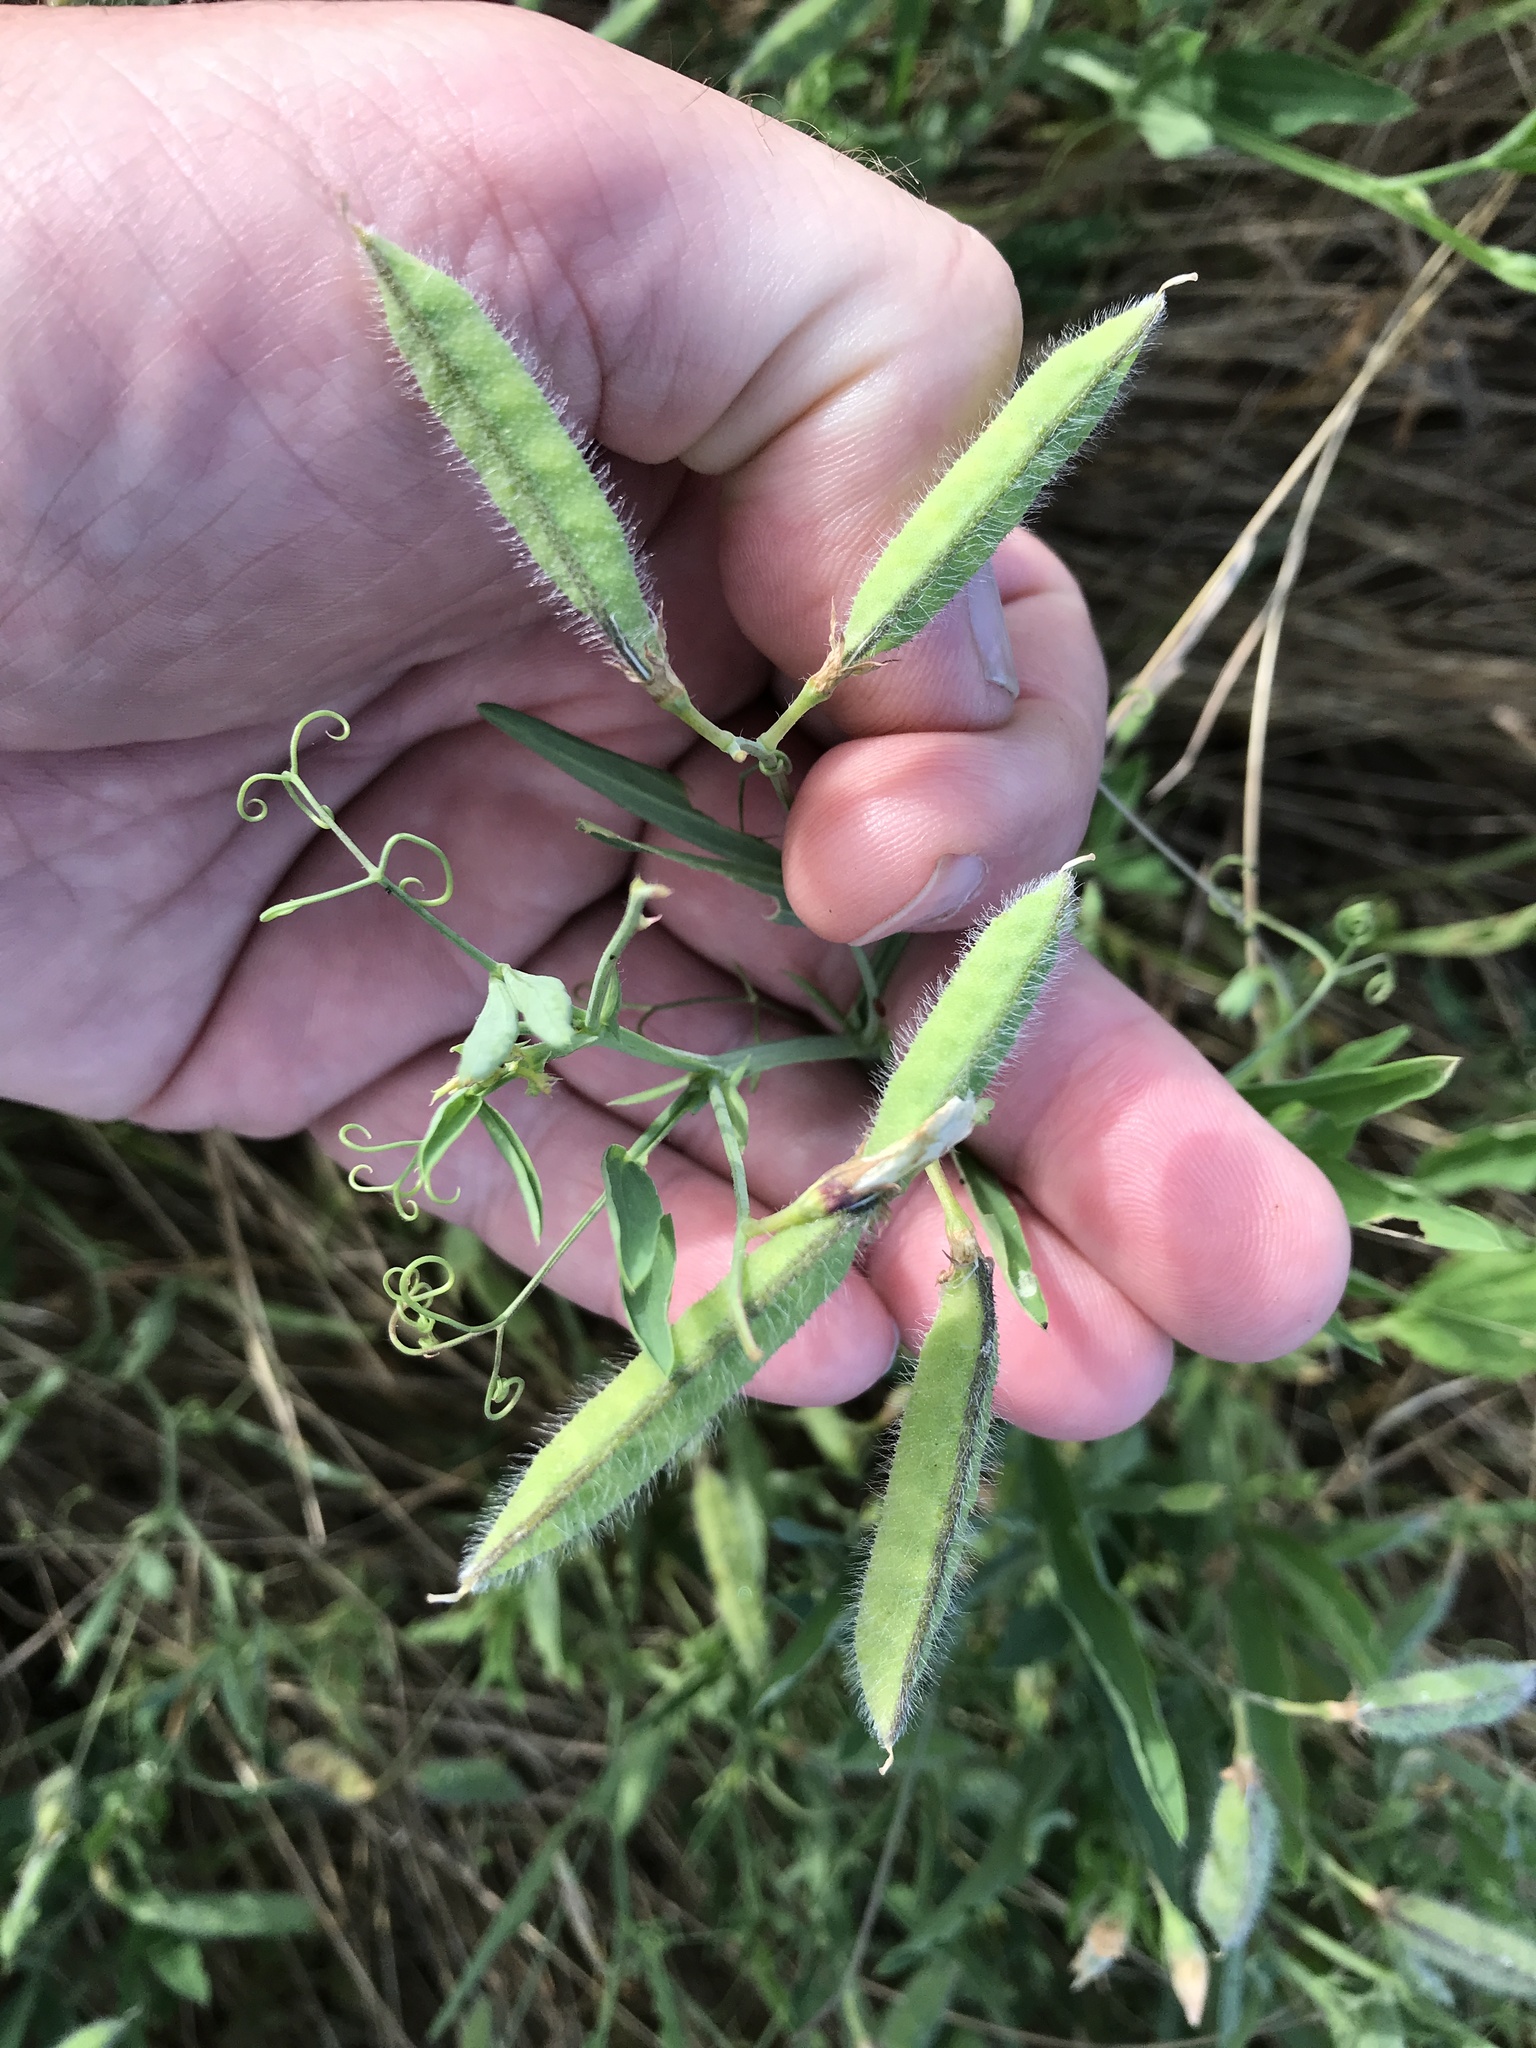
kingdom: Plantae
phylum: Tracheophyta
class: Magnoliopsida
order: Fabales
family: Fabaceae
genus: Lathyrus
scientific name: Lathyrus hirsutus
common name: Hairy vetchling
